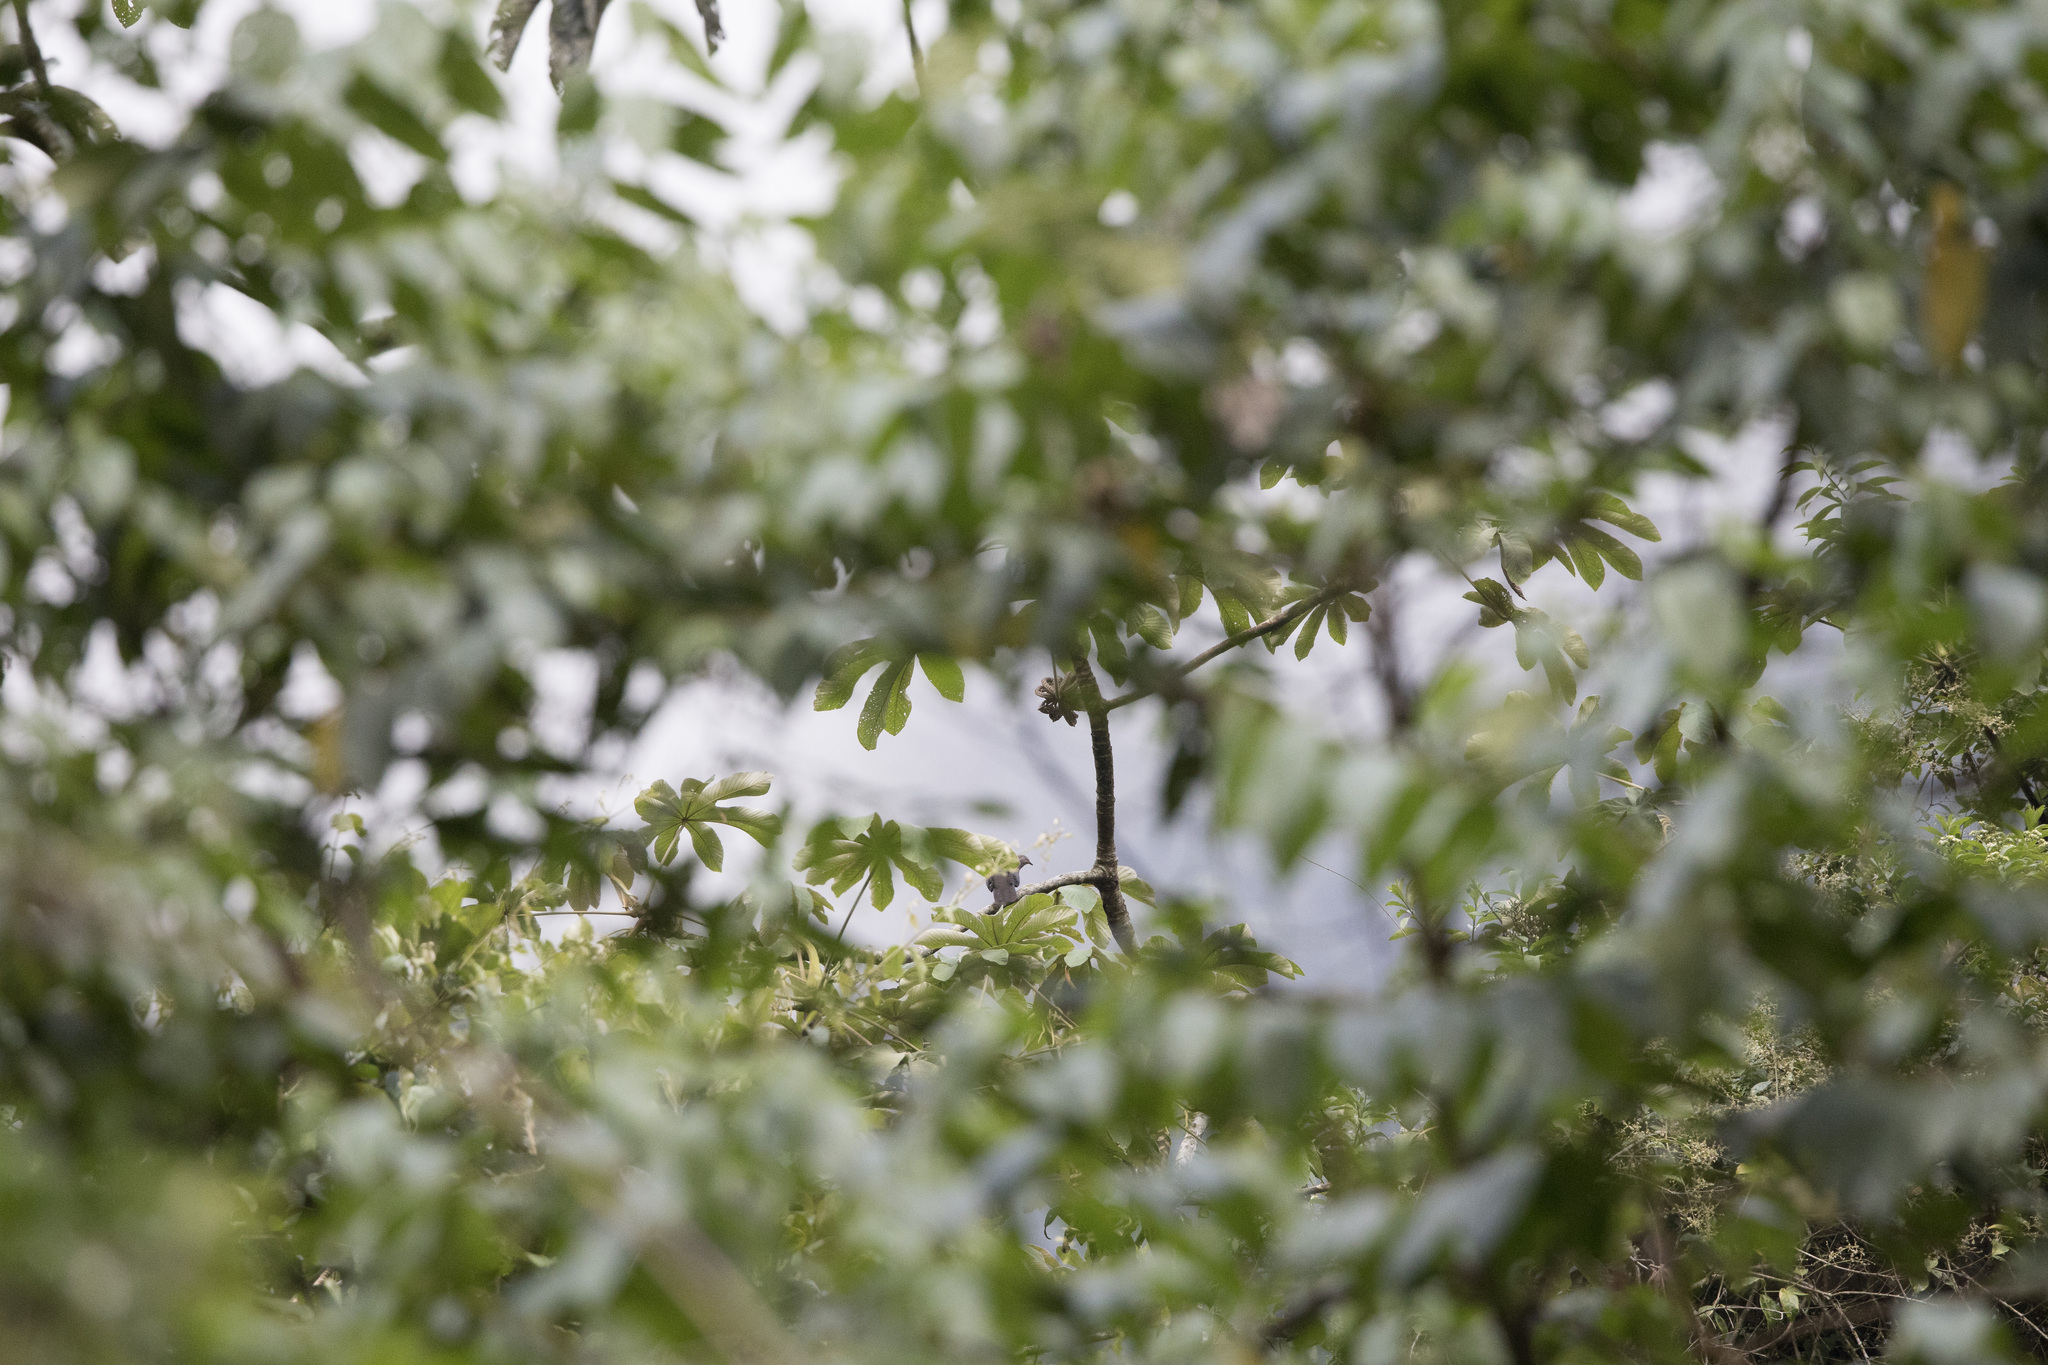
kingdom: Animalia
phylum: Chordata
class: Aves
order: Columbiformes
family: Columbidae
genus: Patagioenas
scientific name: Patagioenas plumbea
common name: Plumbeous pigeon
